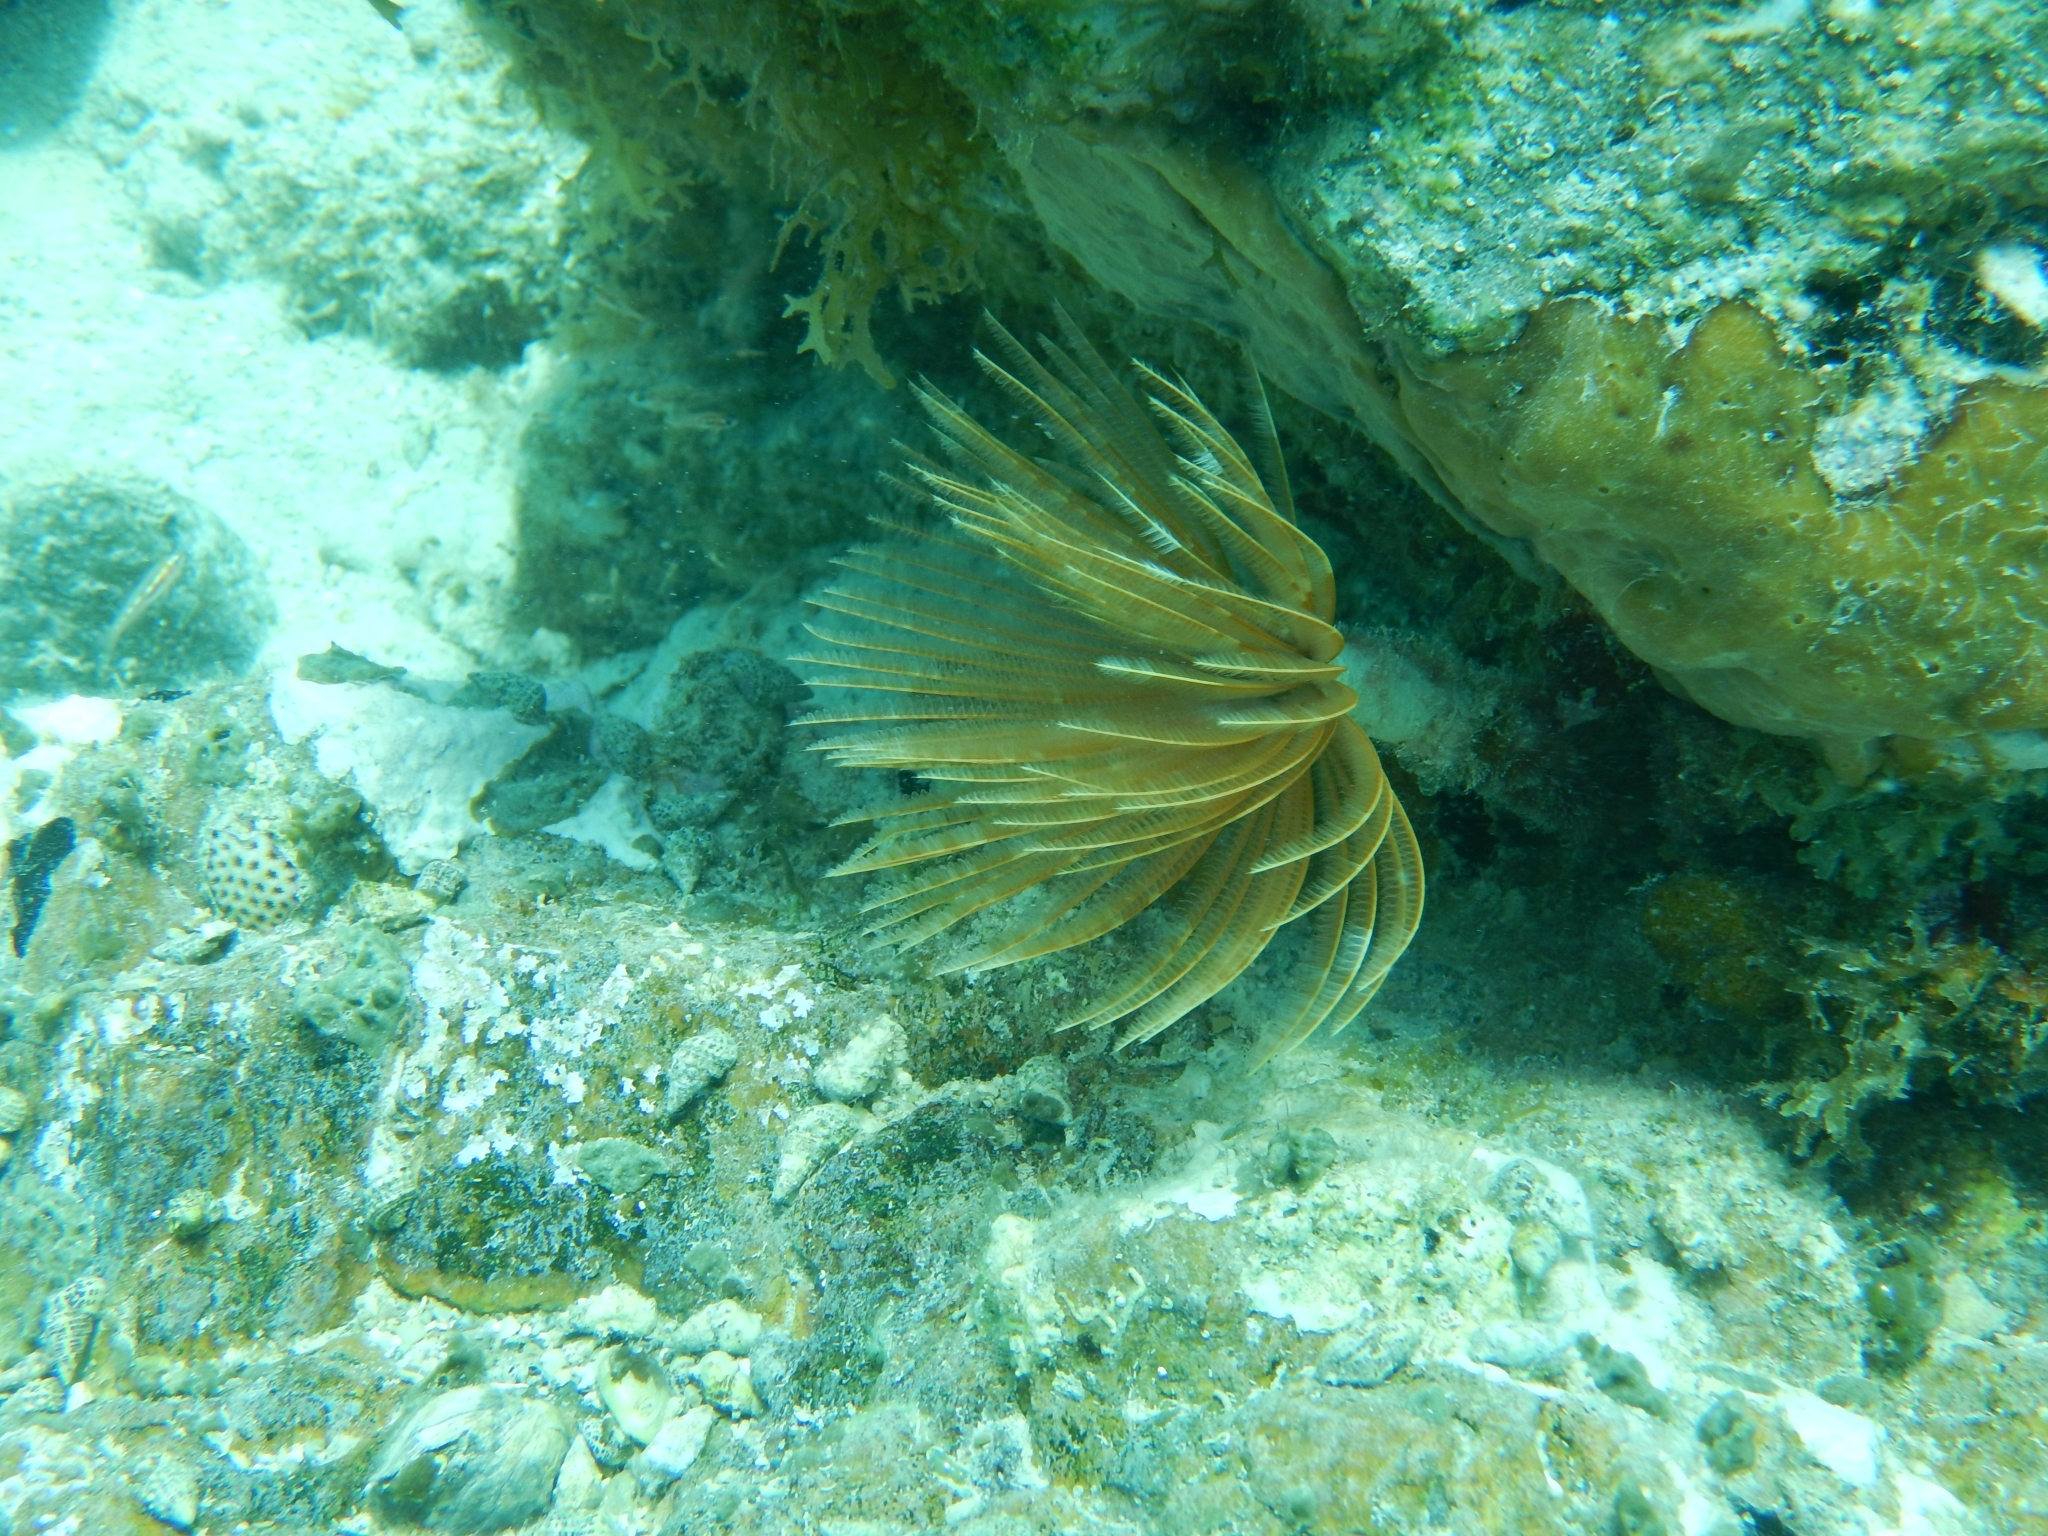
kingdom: Animalia
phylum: Annelida
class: Polychaeta
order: Sabellida
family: Sabellidae
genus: Sabellastarte
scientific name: Sabellastarte magnifica
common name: Giant feather-duster worm
